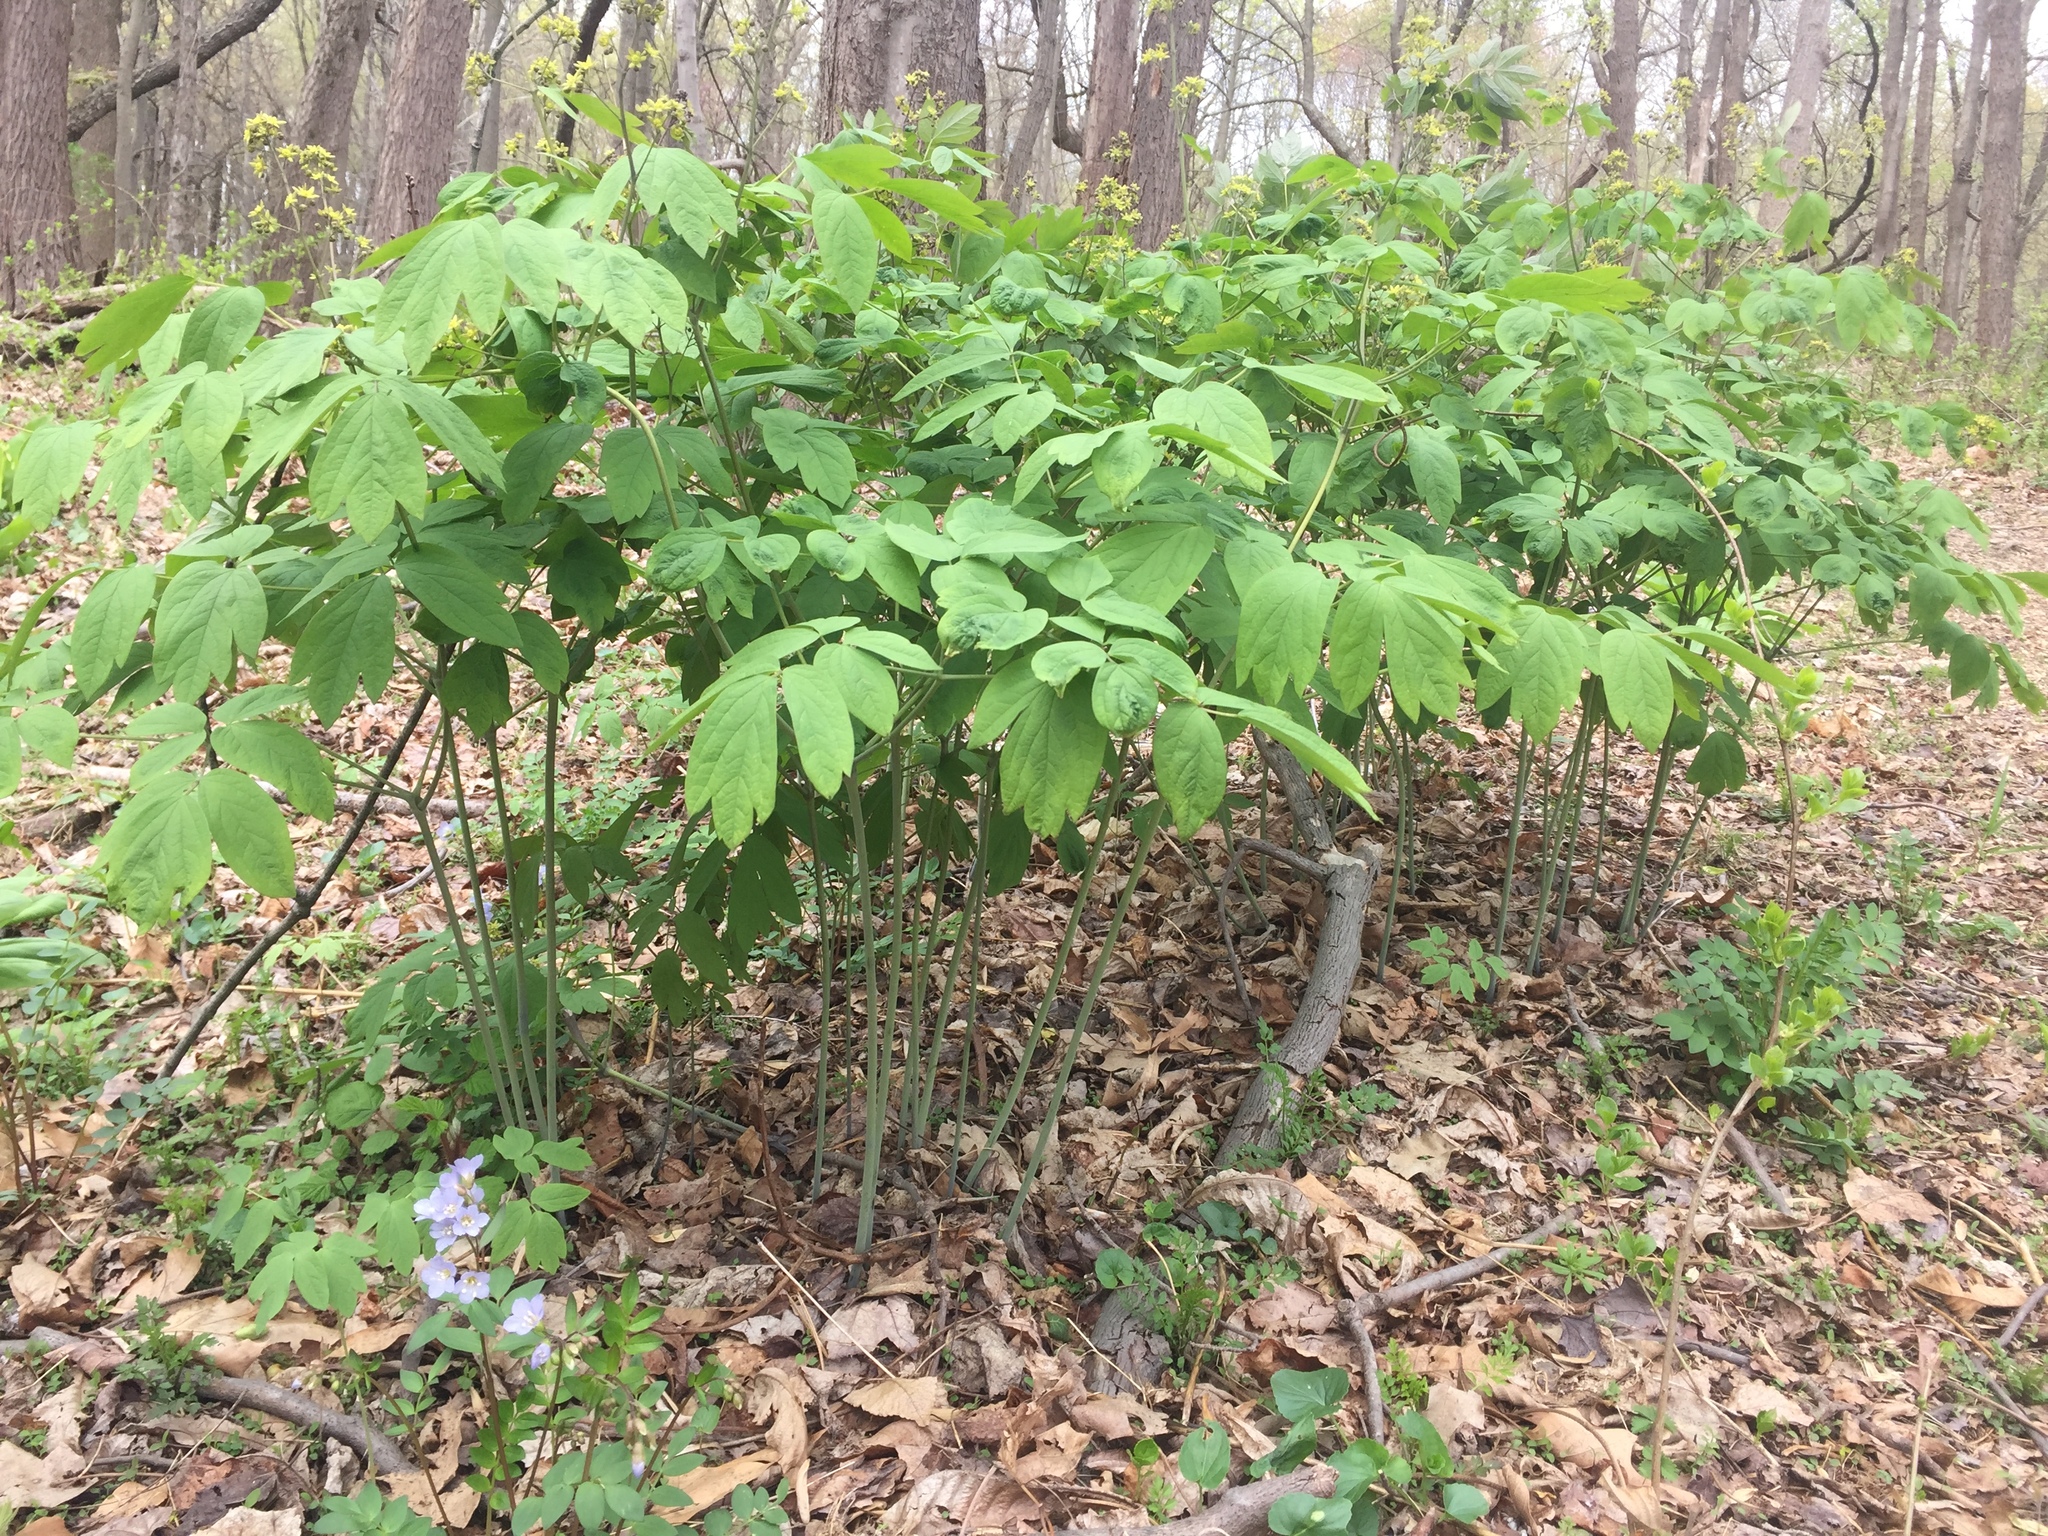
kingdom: Plantae
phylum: Tracheophyta
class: Magnoliopsida
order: Ranunculales
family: Berberidaceae
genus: Caulophyllum
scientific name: Caulophyllum thalictroides
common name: Blue cohosh
